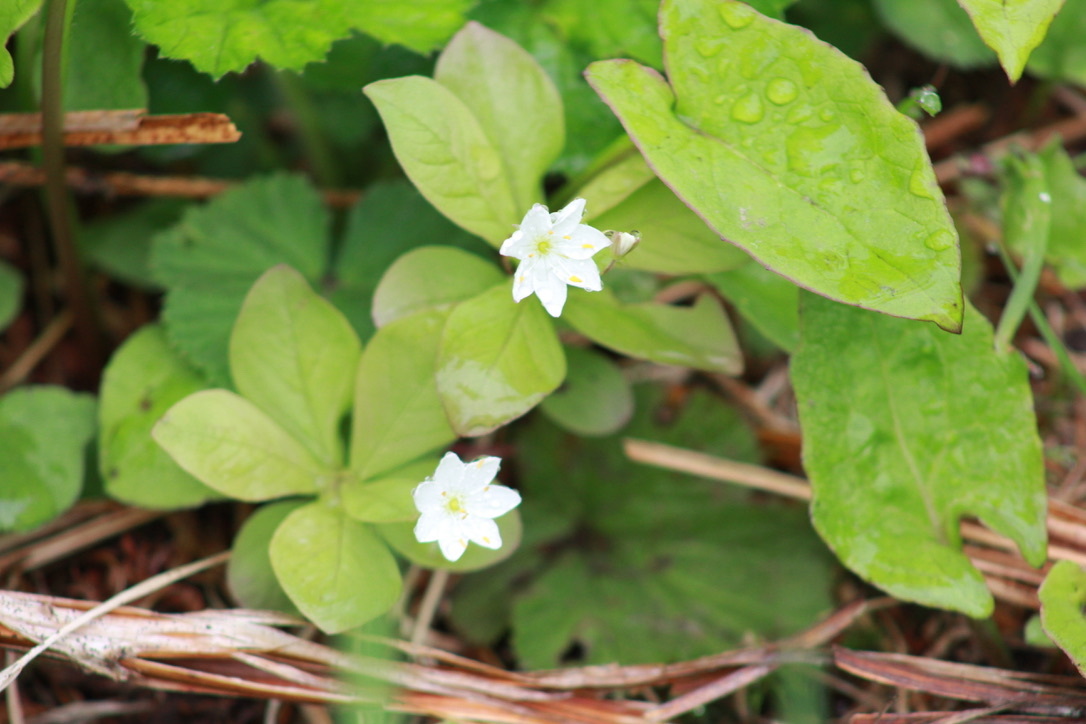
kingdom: Plantae
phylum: Tracheophyta
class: Magnoliopsida
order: Ericales
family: Primulaceae
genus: Lysimachia
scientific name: Lysimachia europaea
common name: Arctic starflower
